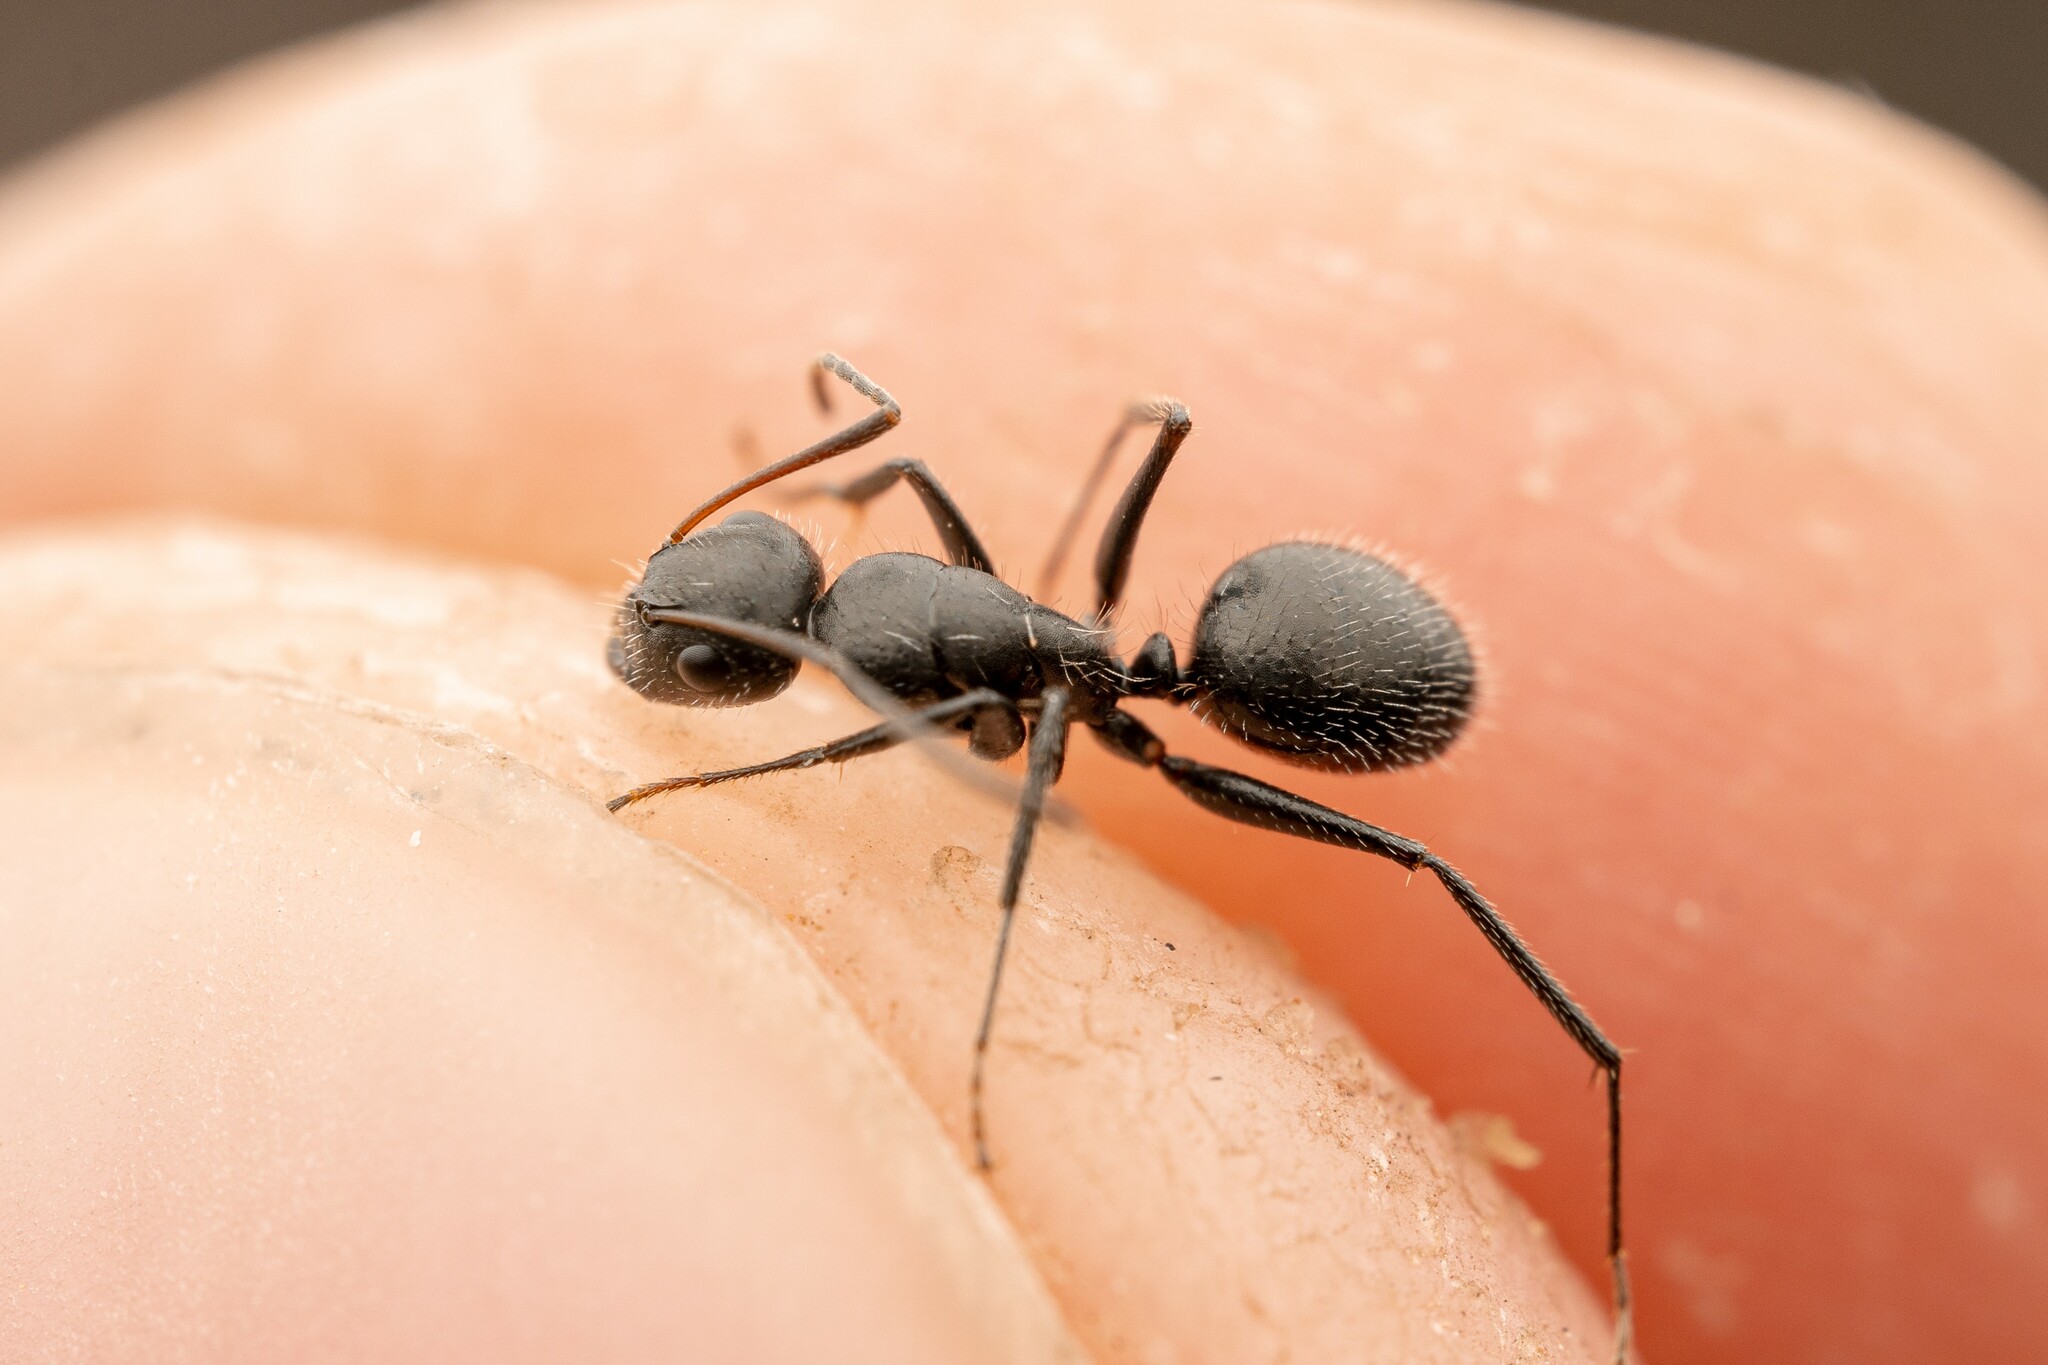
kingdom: Animalia
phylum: Arthropoda
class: Insecta
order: Hymenoptera
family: Formicidae
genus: Camponotus
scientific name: Camponotus ulcerosus
